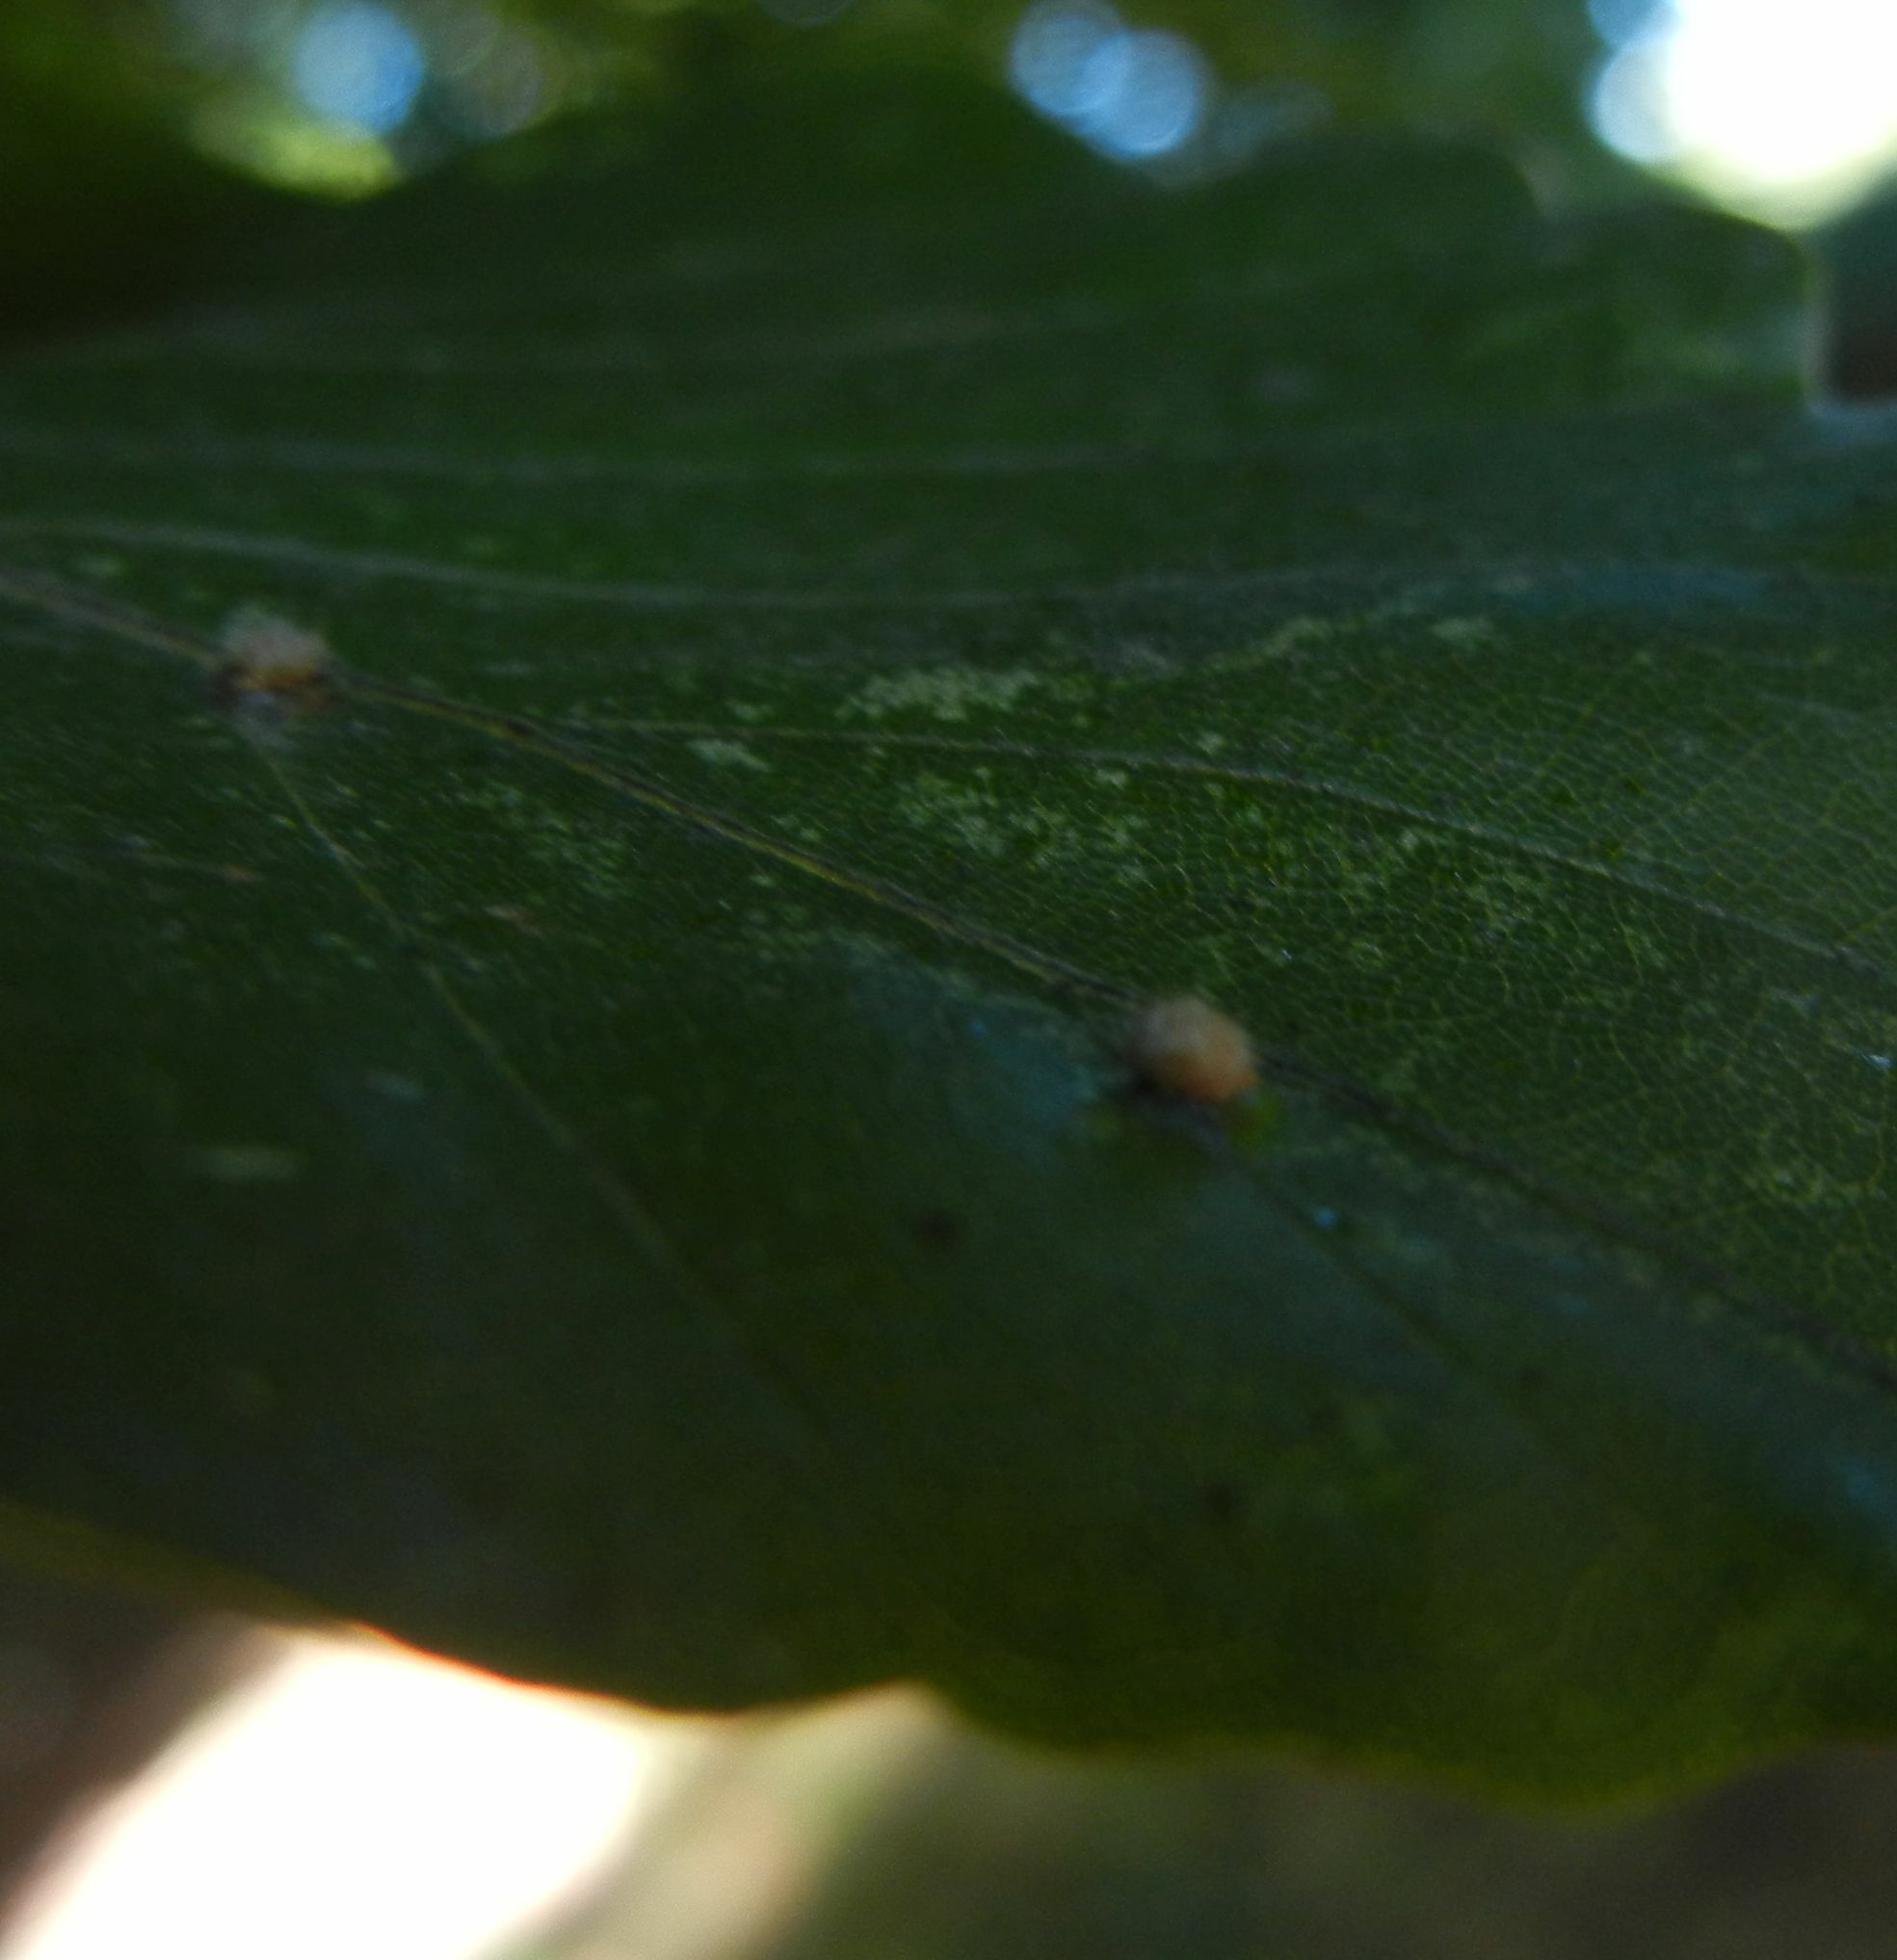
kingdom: Animalia
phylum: Arthropoda
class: Insecta
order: Diptera
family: Cecidomyiidae
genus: Hartigiola
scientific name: Hartigiola annulipes
